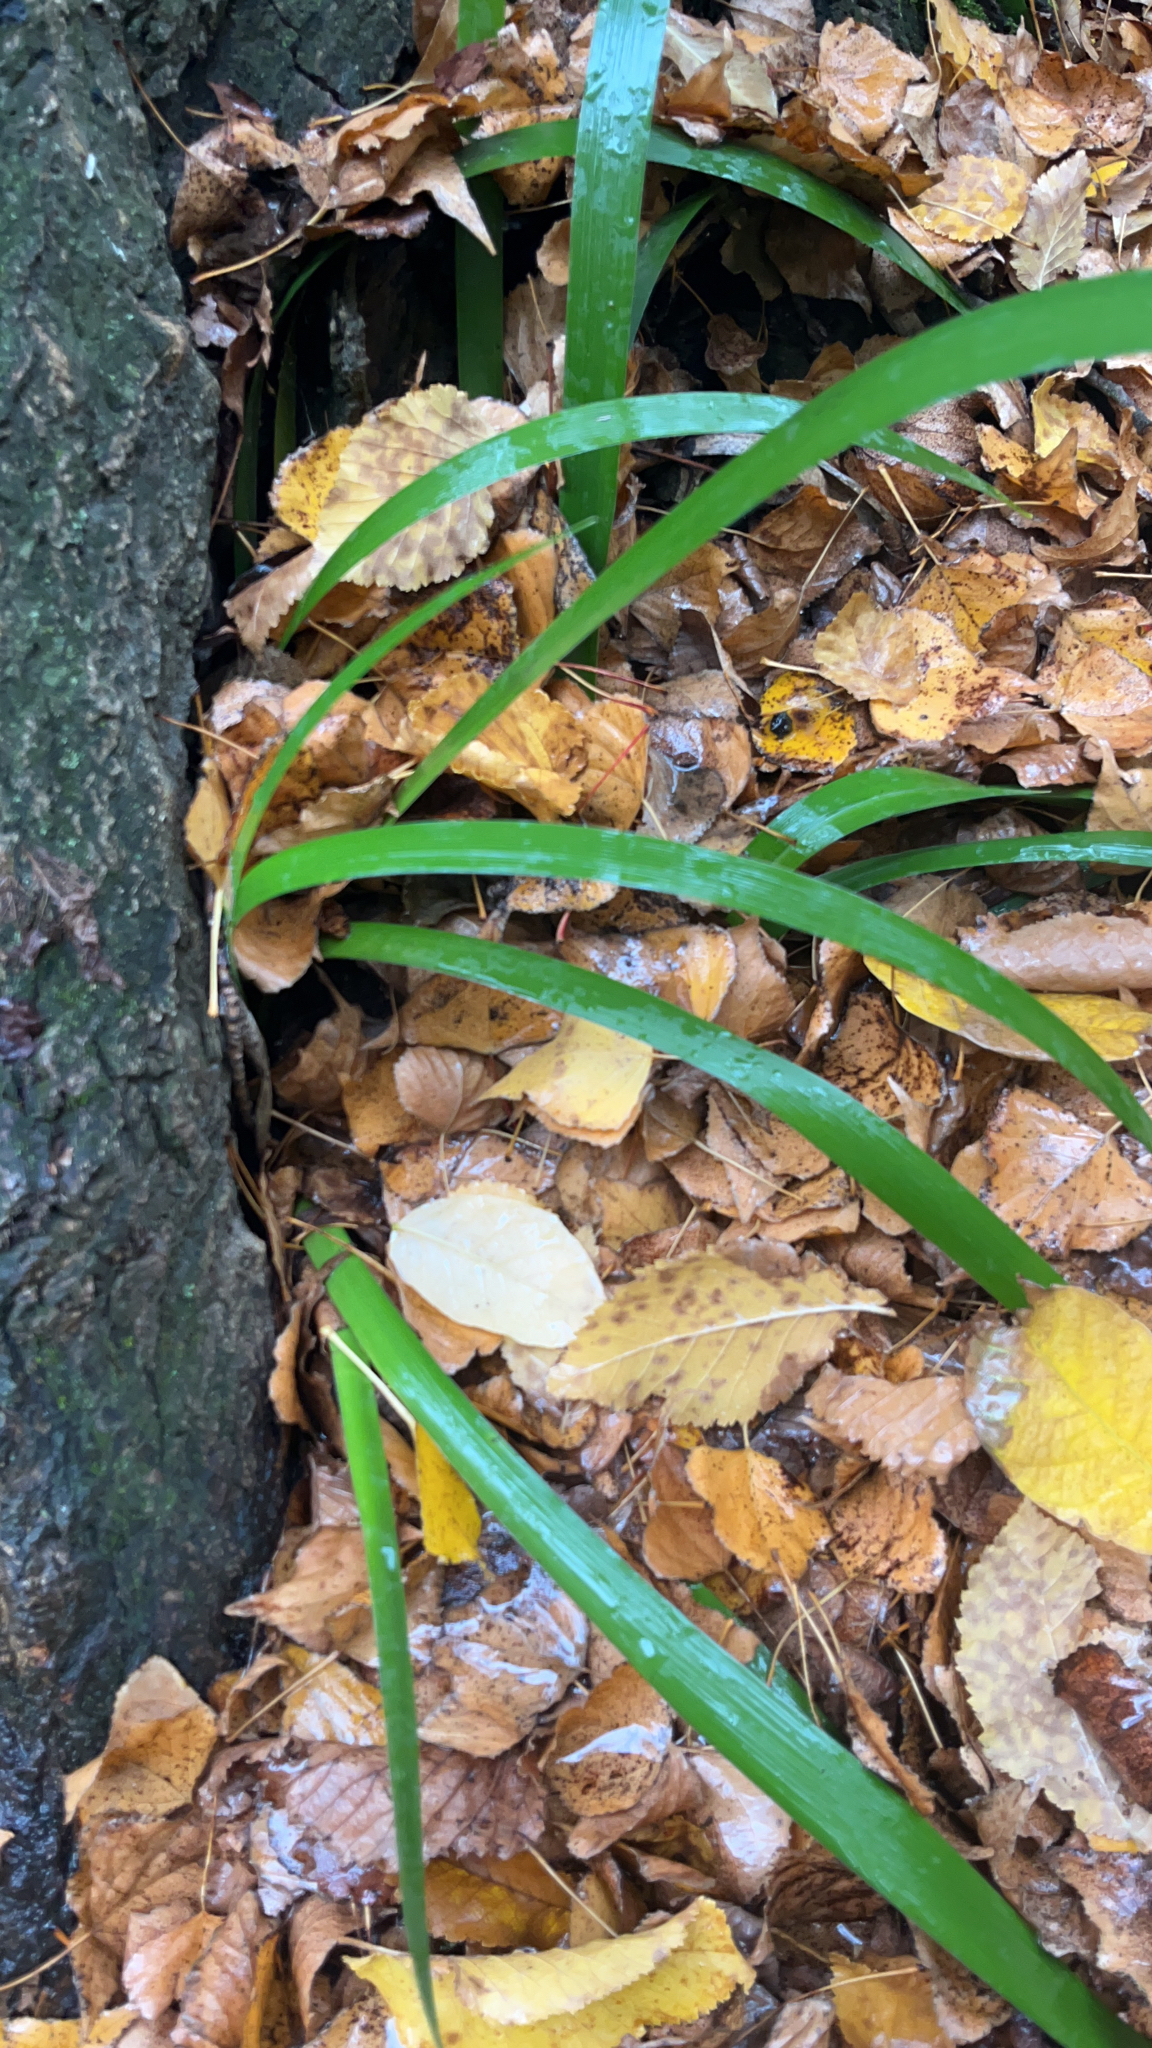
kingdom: Plantae
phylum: Tracheophyta
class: Liliopsida
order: Asparagales
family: Iridaceae
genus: Iris
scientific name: Iris foetidissima
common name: Stinking iris
